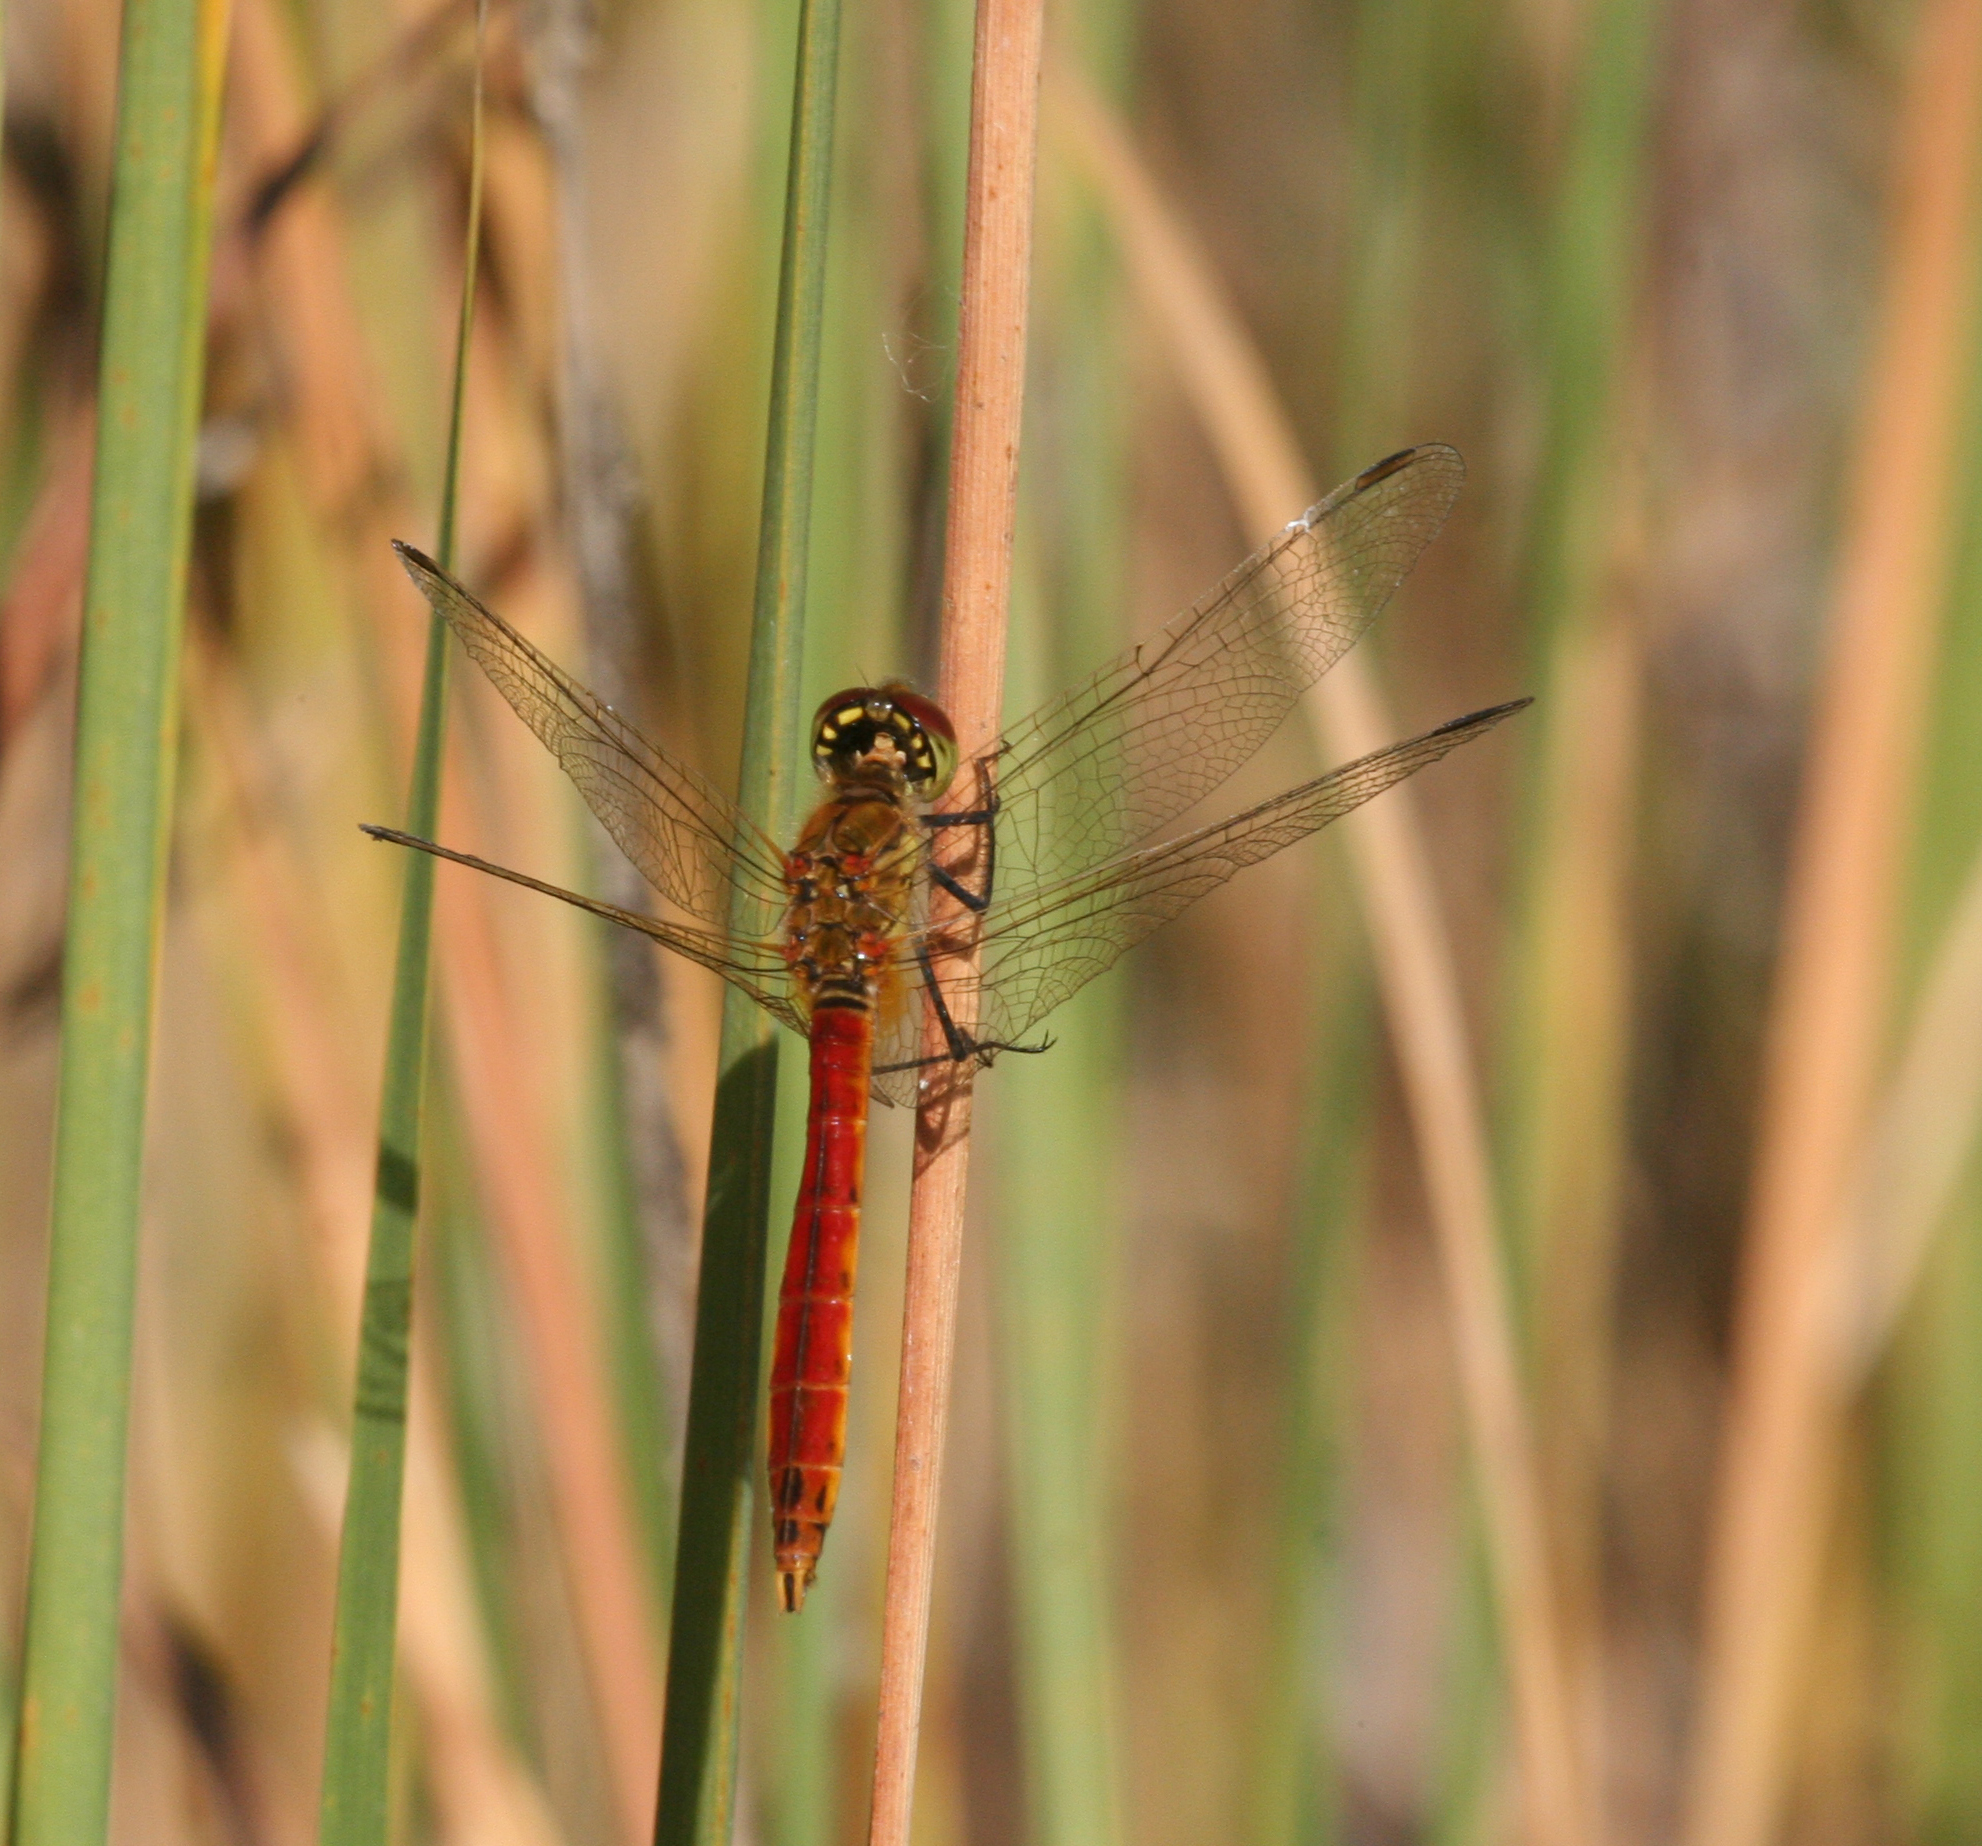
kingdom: Animalia
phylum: Arthropoda
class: Insecta
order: Odonata
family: Libellulidae
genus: Sympetrum
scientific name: Sympetrum depressiusculum
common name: Spotted darter
